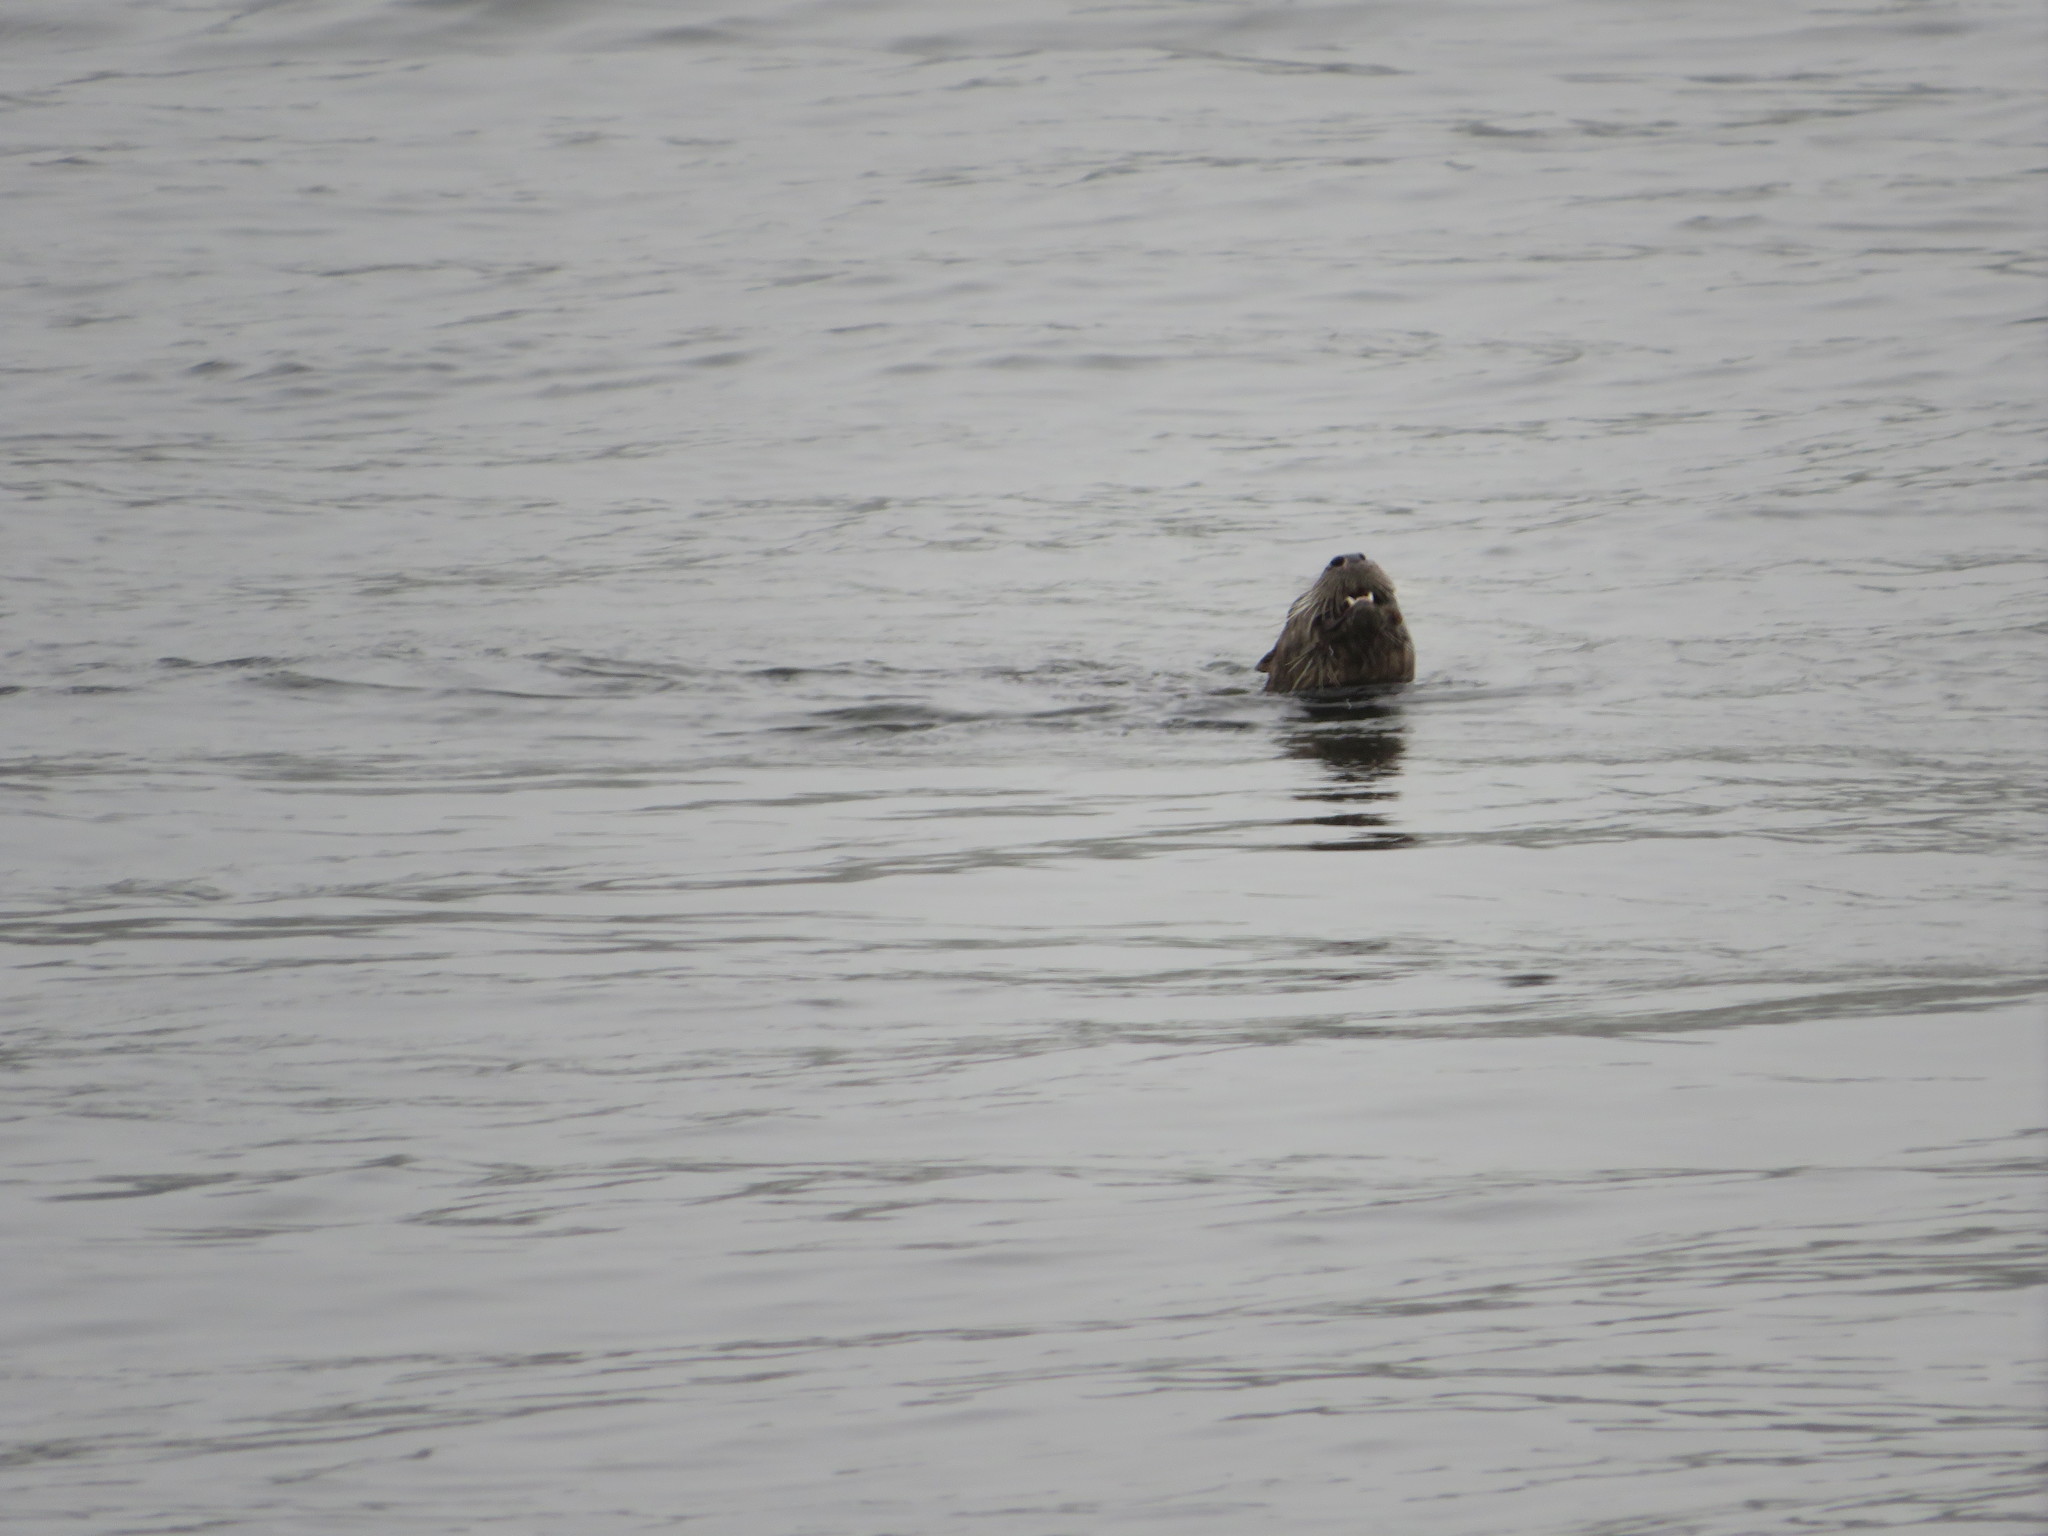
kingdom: Animalia
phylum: Chordata
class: Mammalia
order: Carnivora
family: Mustelidae
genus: Lontra
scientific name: Lontra canadensis
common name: North american river otter
